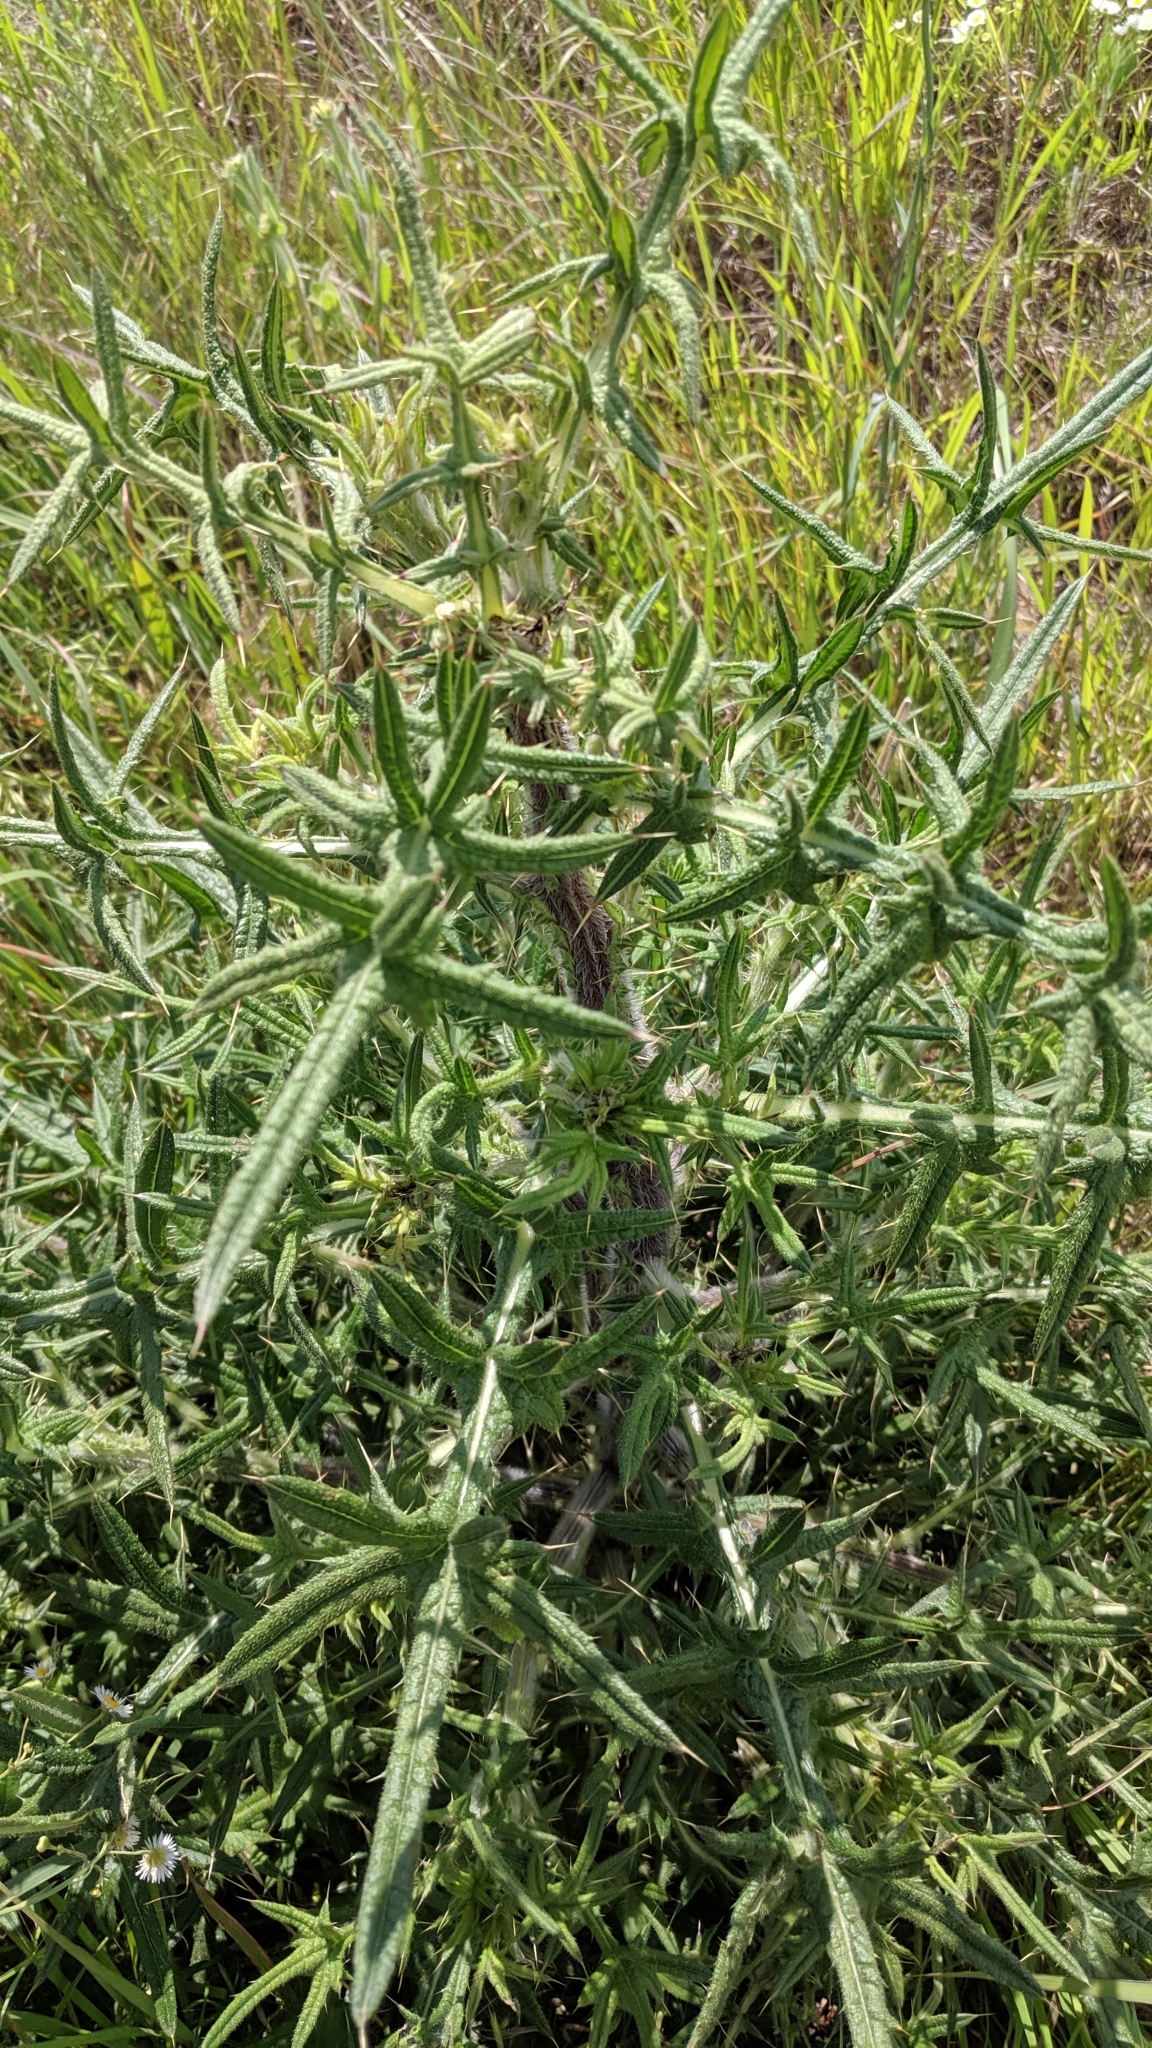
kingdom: Plantae
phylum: Tracheophyta
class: Magnoliopsida
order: Asterales
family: Asteraceae
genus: Cirsium
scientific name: Cirsium vulgare
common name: Bull thistle
